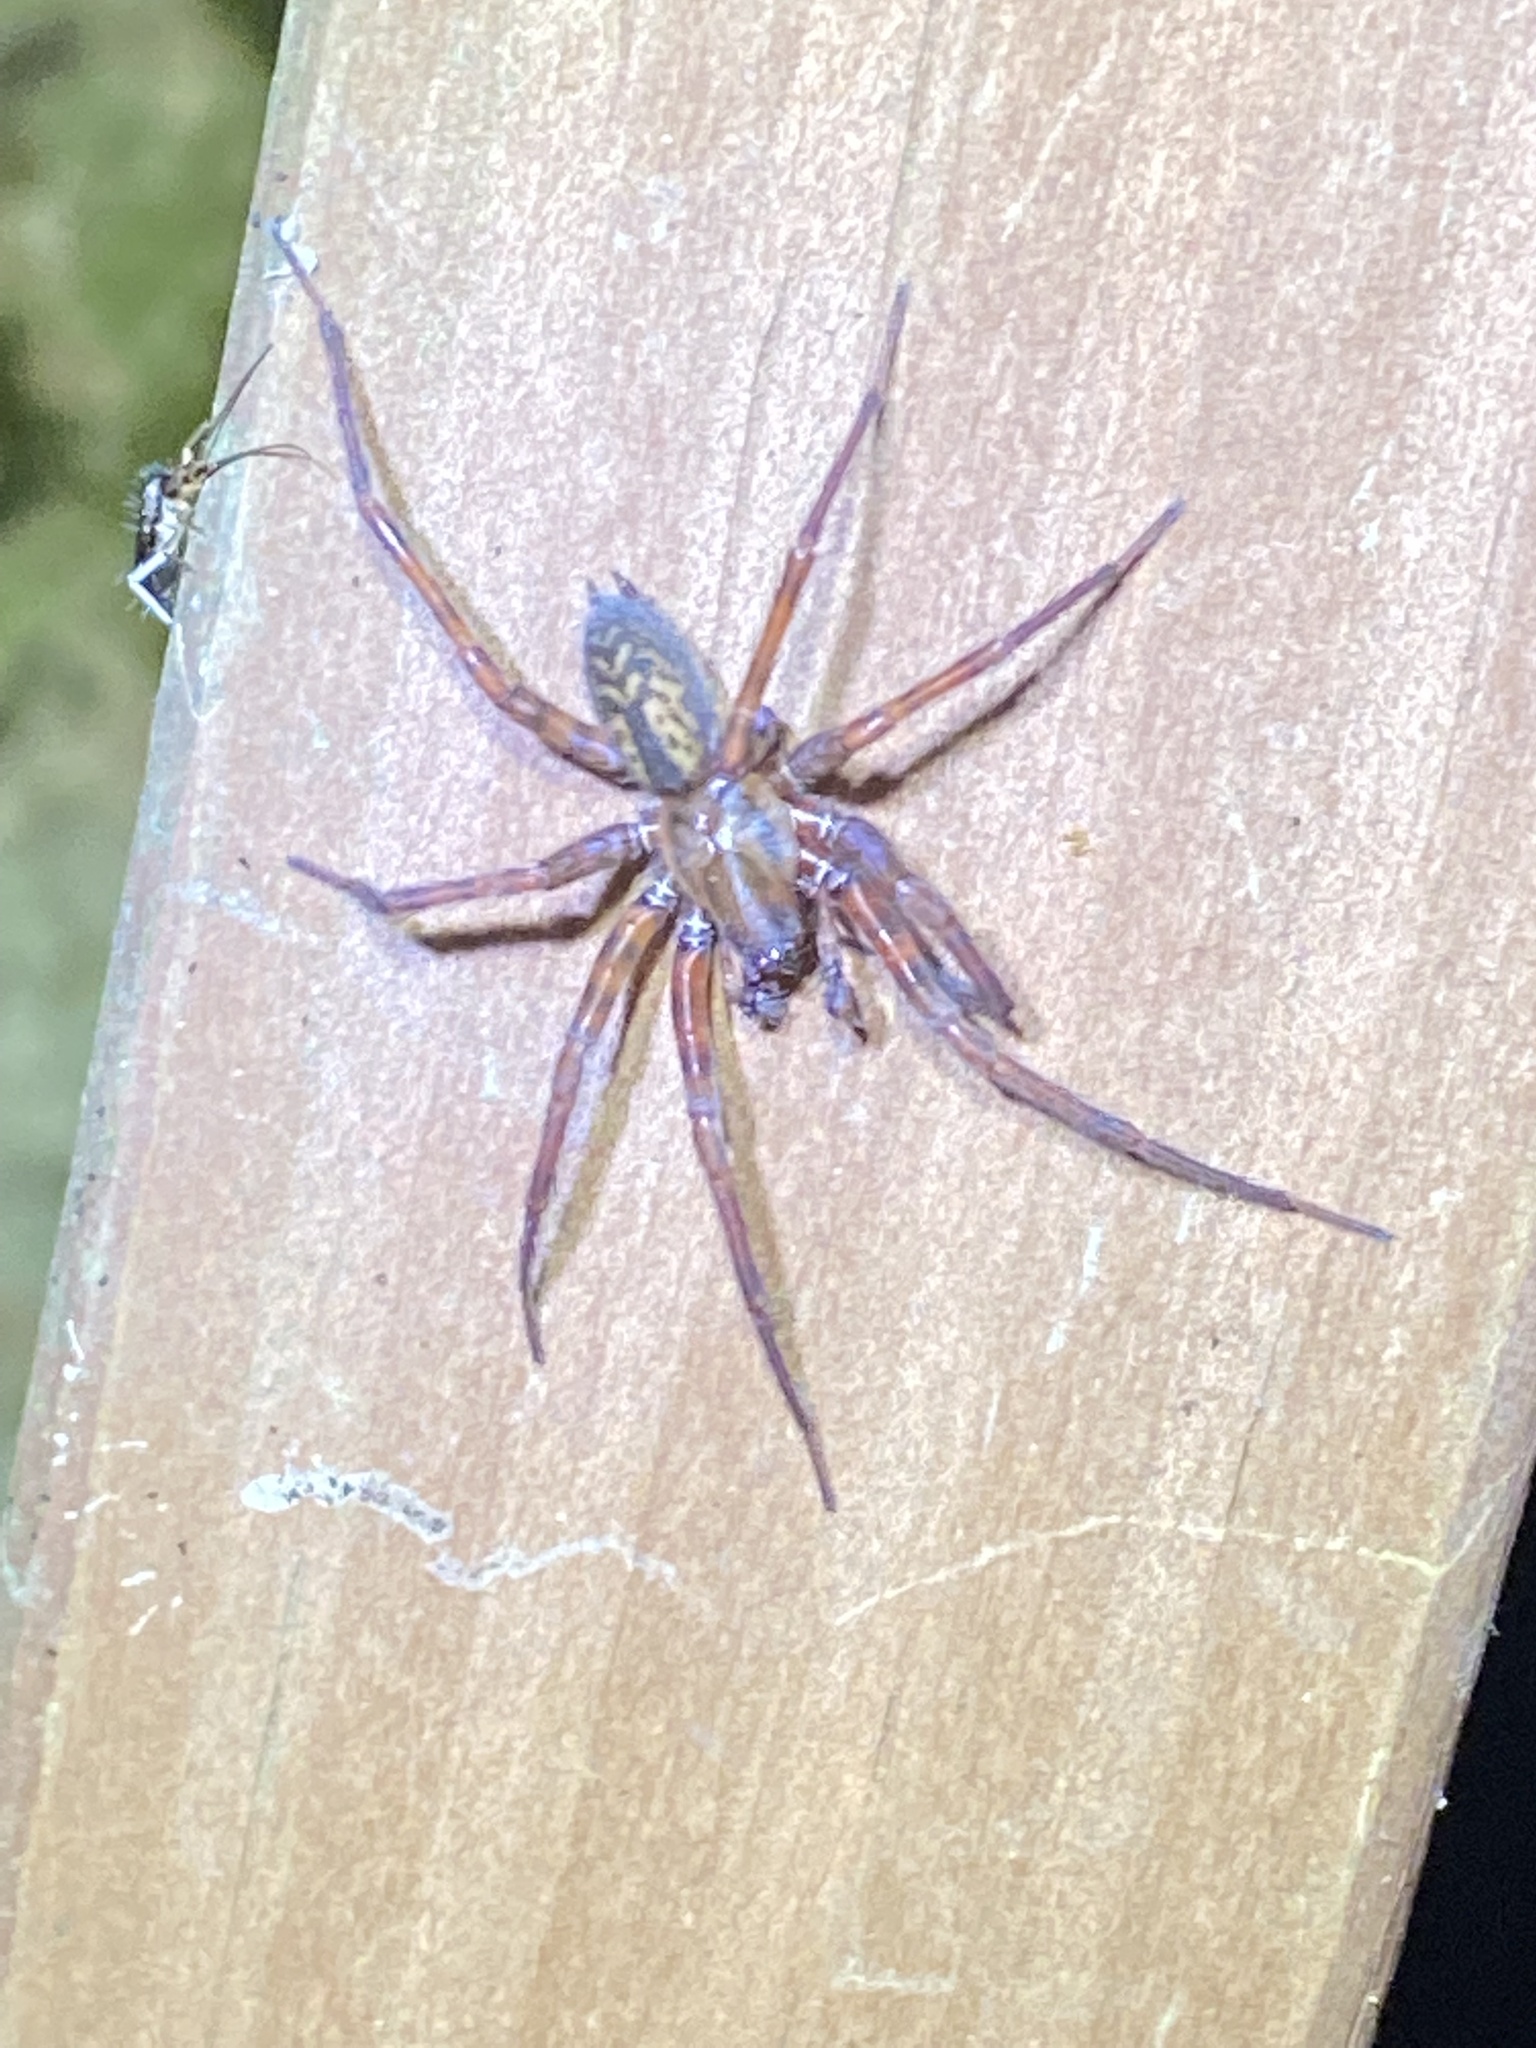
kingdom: Animalia
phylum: Arthropoda
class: Arachnida
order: Araneae
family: Agelenidae
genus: Coras
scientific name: Coras
